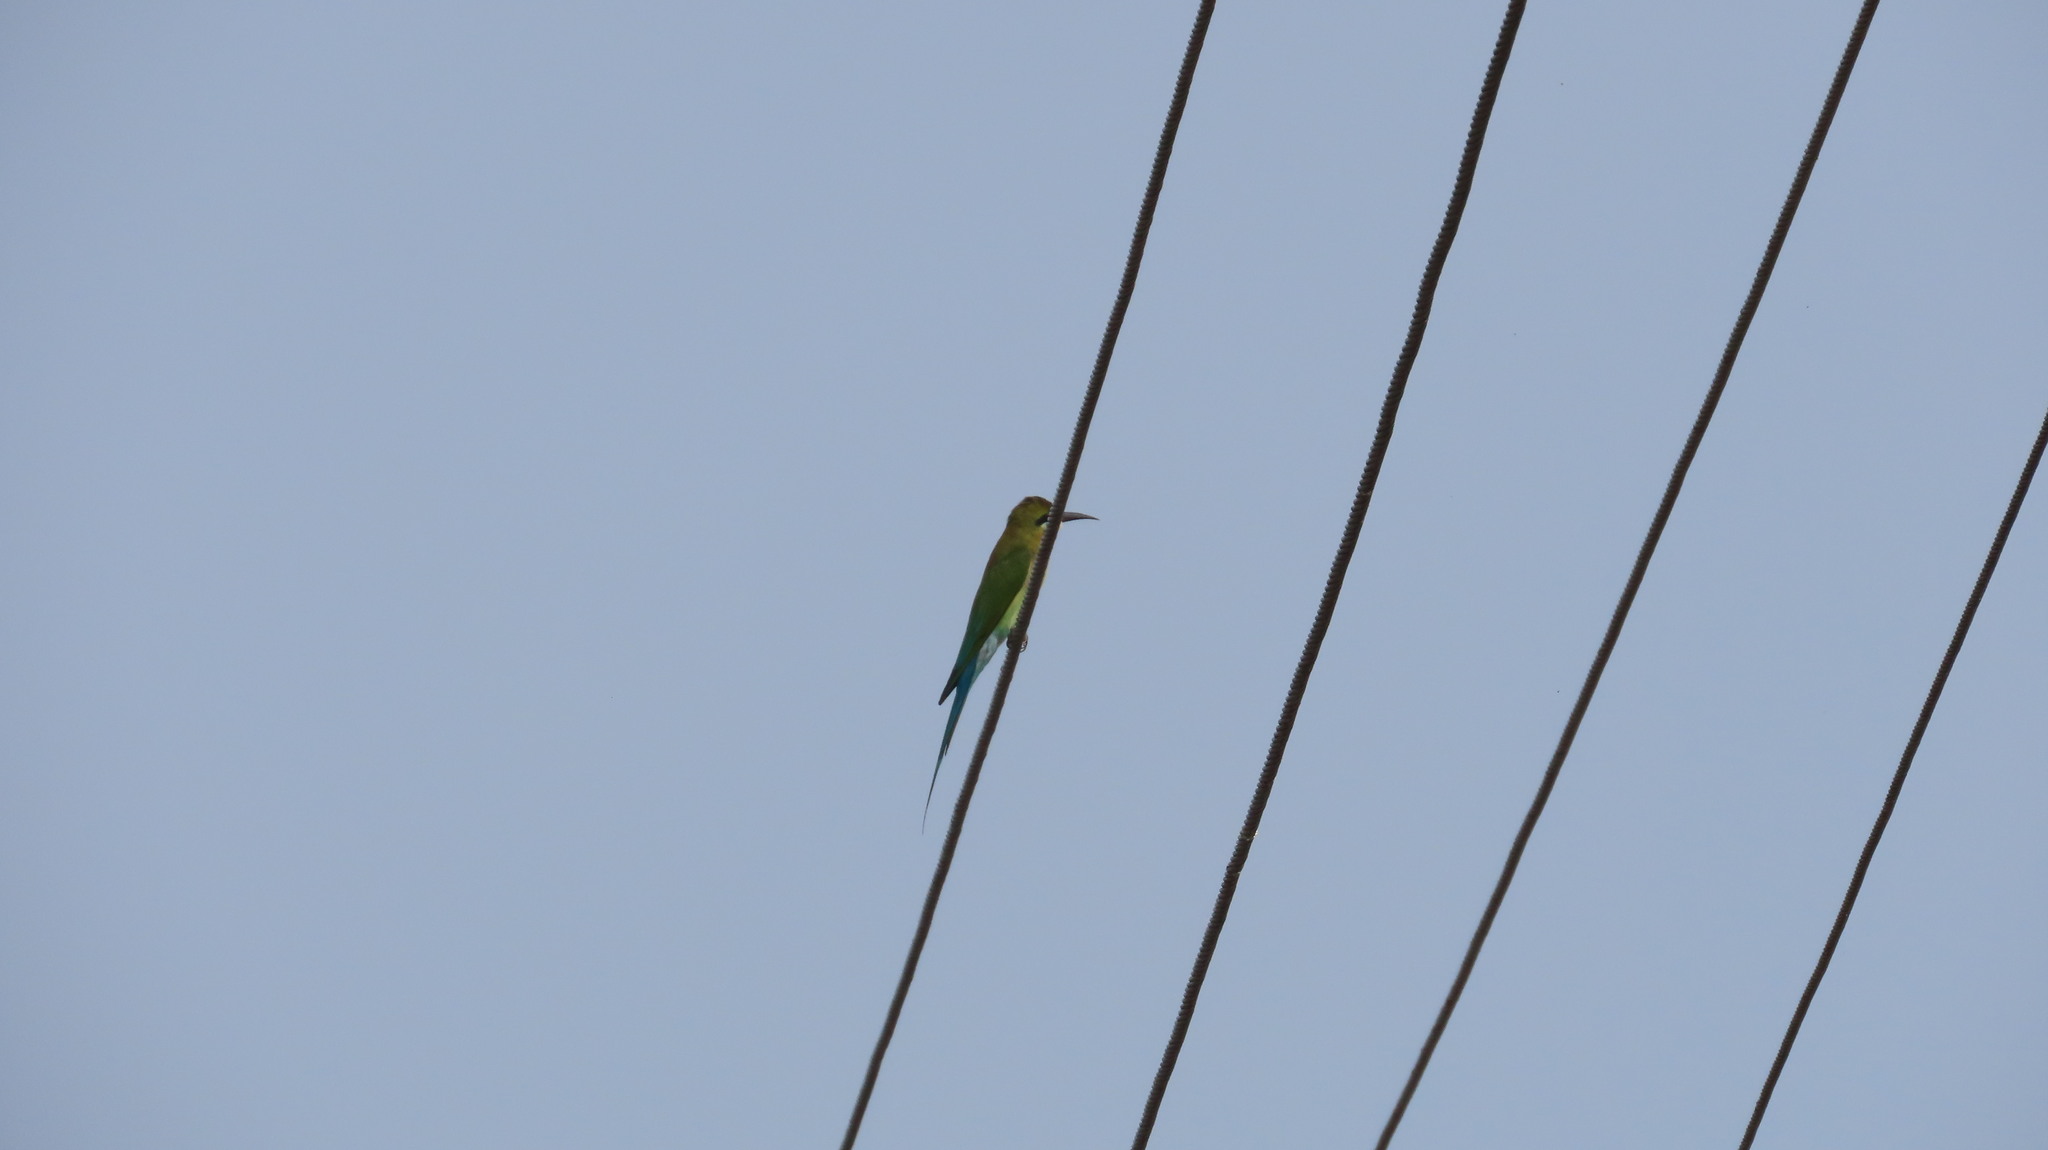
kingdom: Animalia
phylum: Chordata
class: Aves
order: Coraciiformes
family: Meropidae
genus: Merops
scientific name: Merops philippinus
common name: Blue-tailed bee-eater
